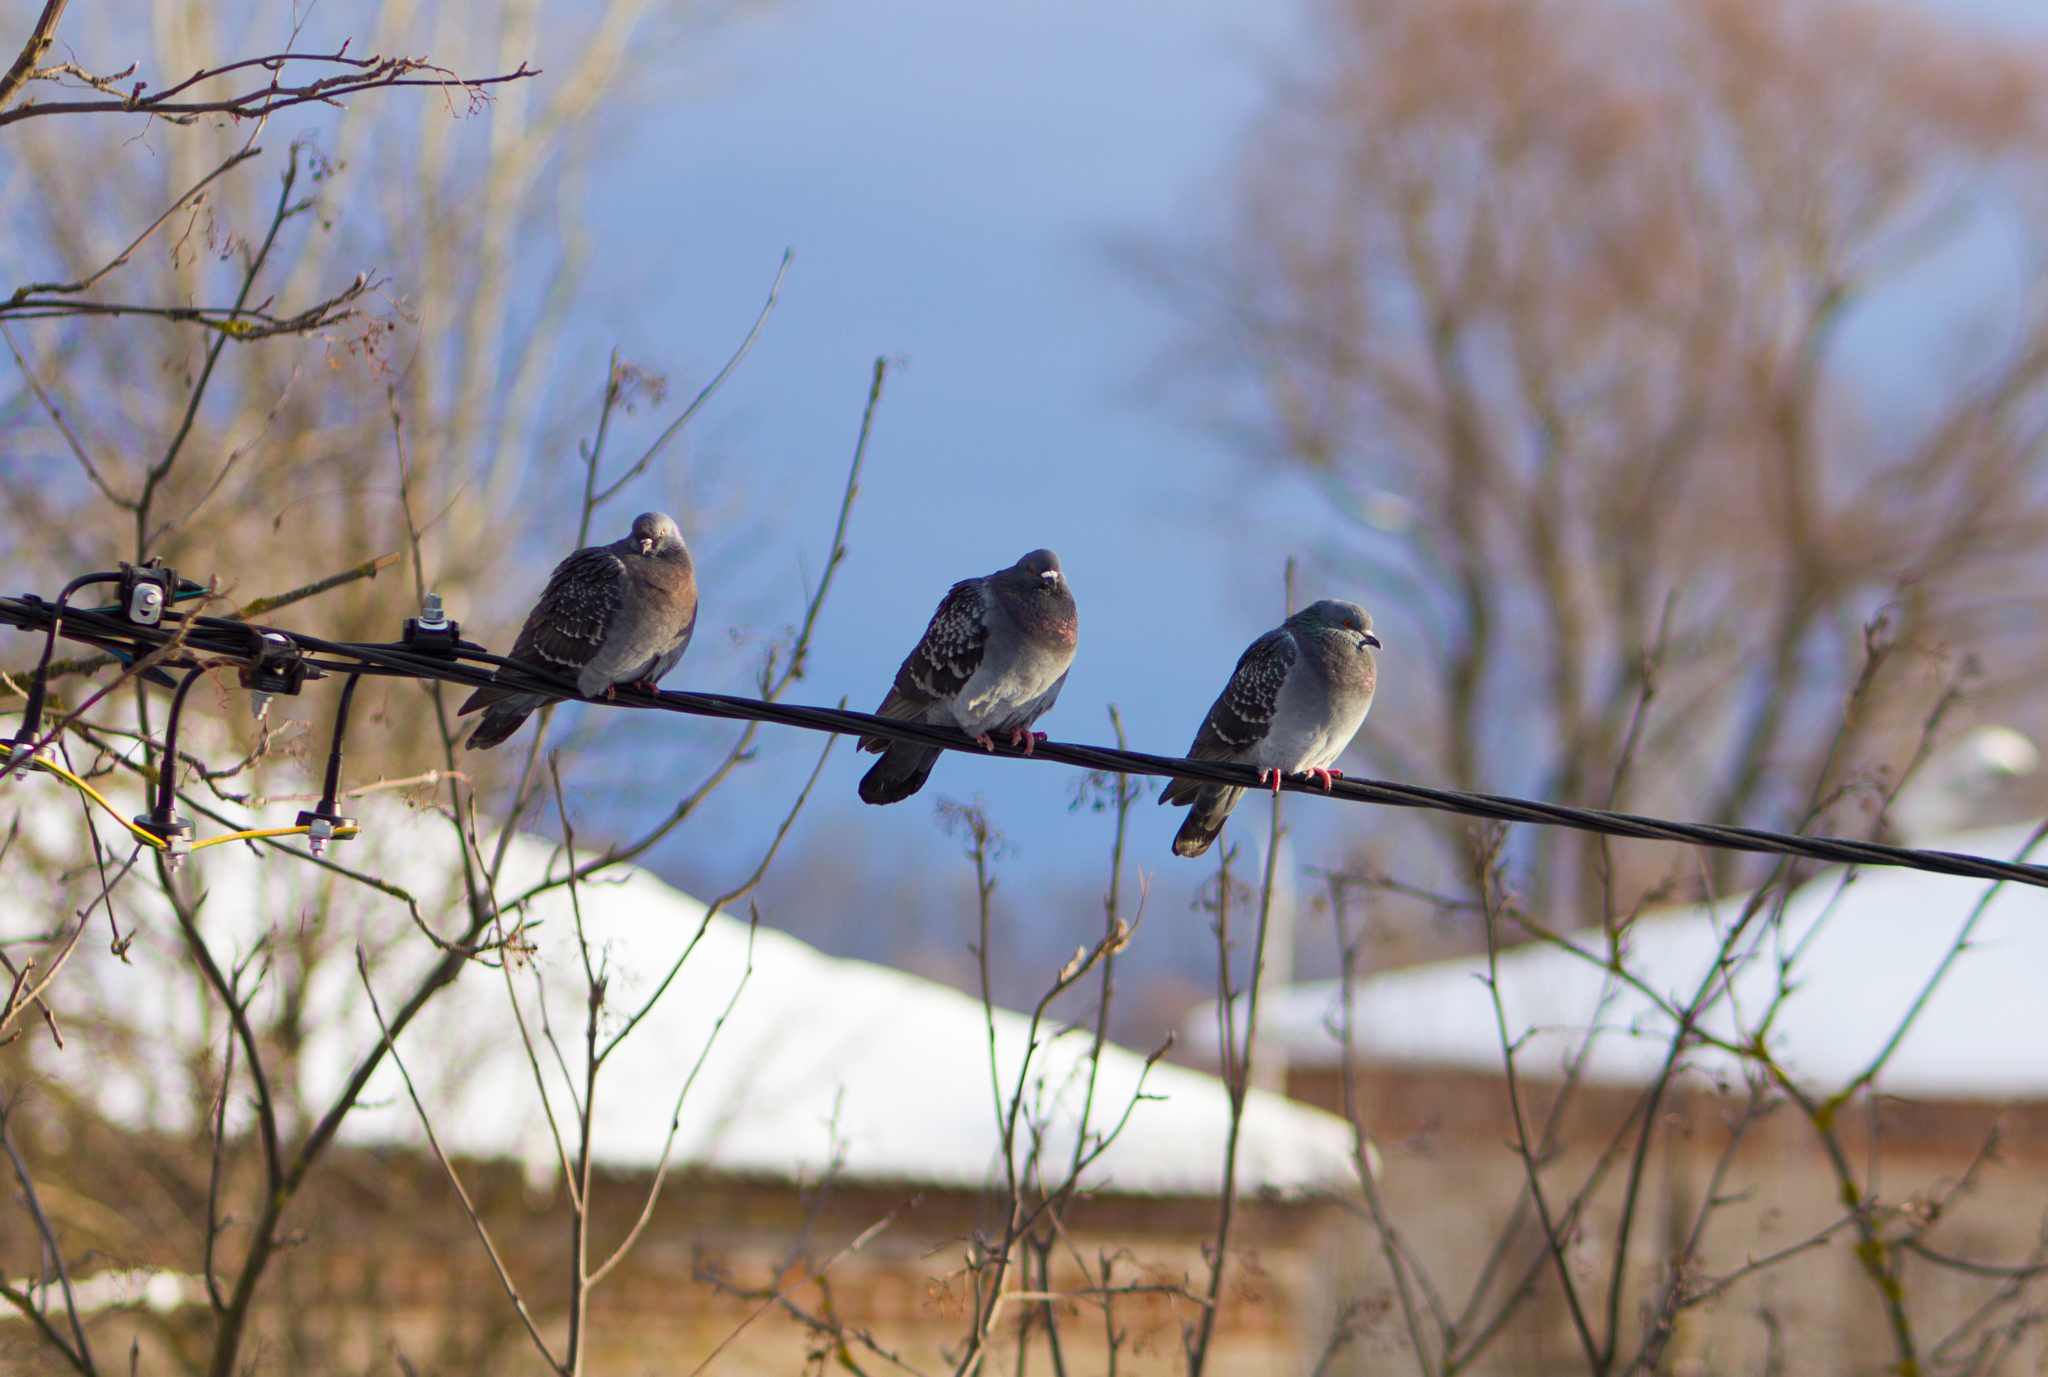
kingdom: Animalia
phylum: Chordata
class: Aves
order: Columbiformes
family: Columbidae
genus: Columba
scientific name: Columba livia
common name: Rock pigeon
